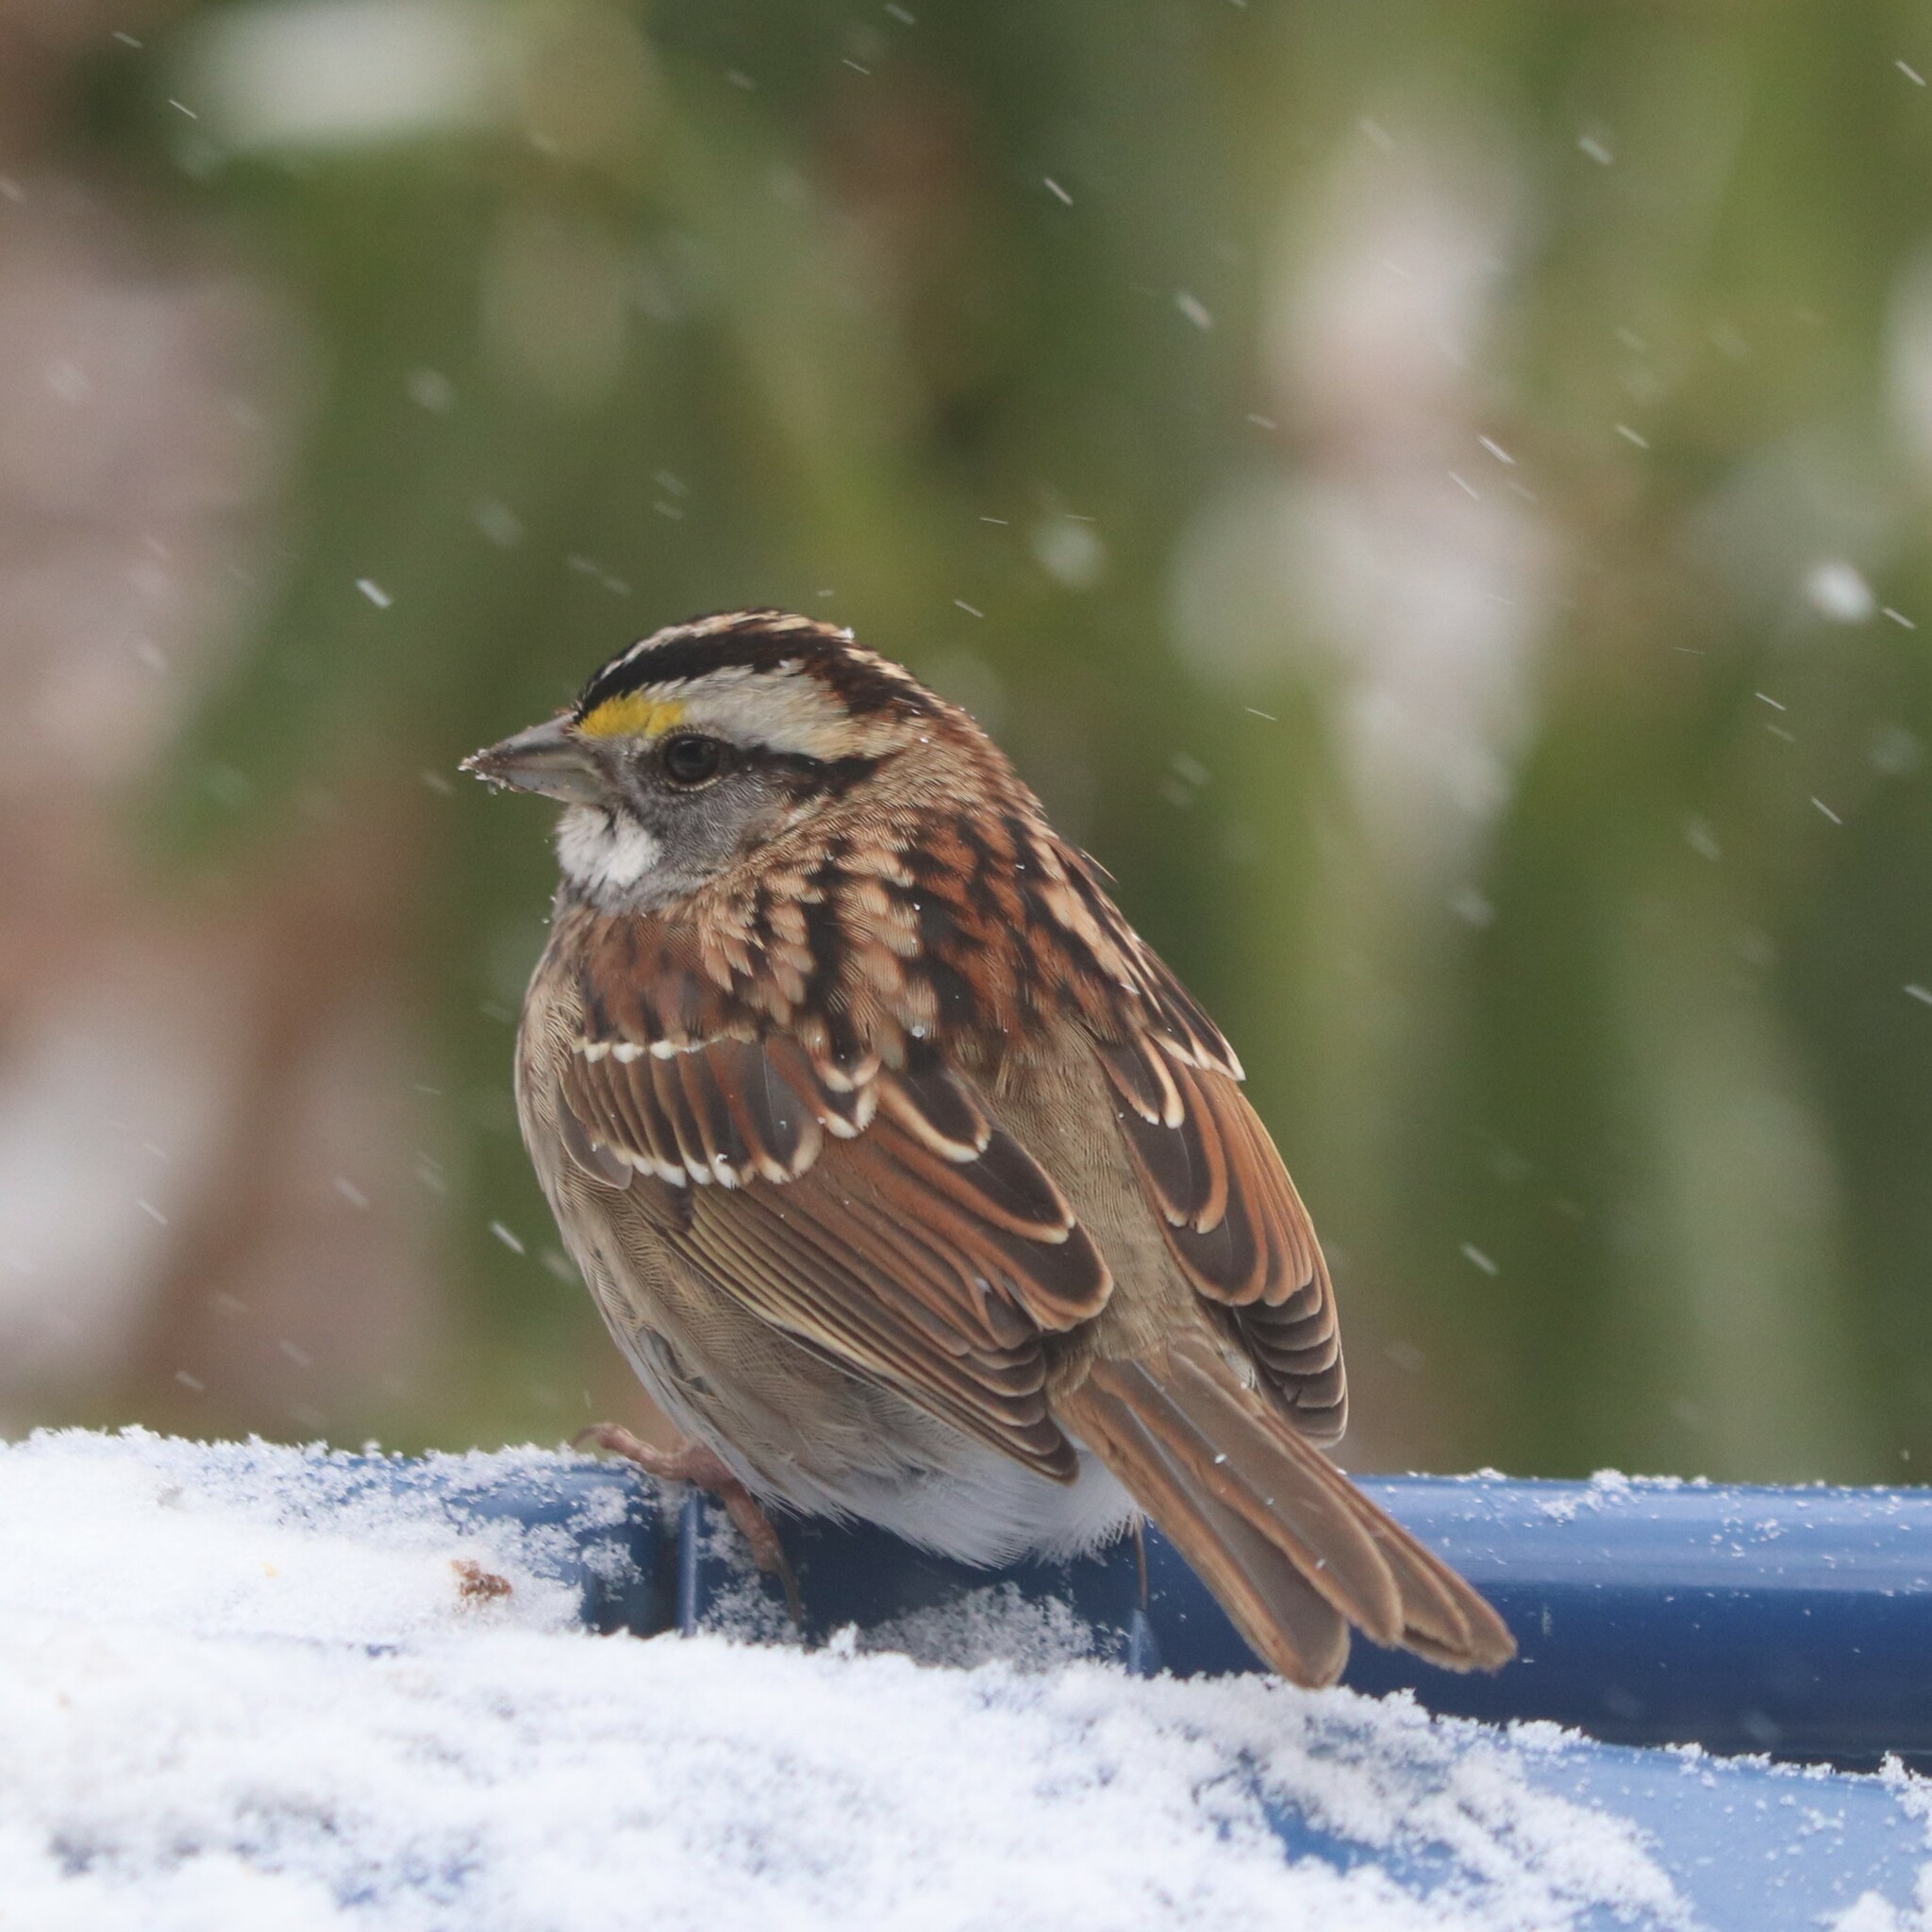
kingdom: Animalia
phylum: Chordata
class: Aves
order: Passeriformes
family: Passerellidae
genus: Zonotrichia
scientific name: Zonotrichia albicollis
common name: White-throated sparrow
